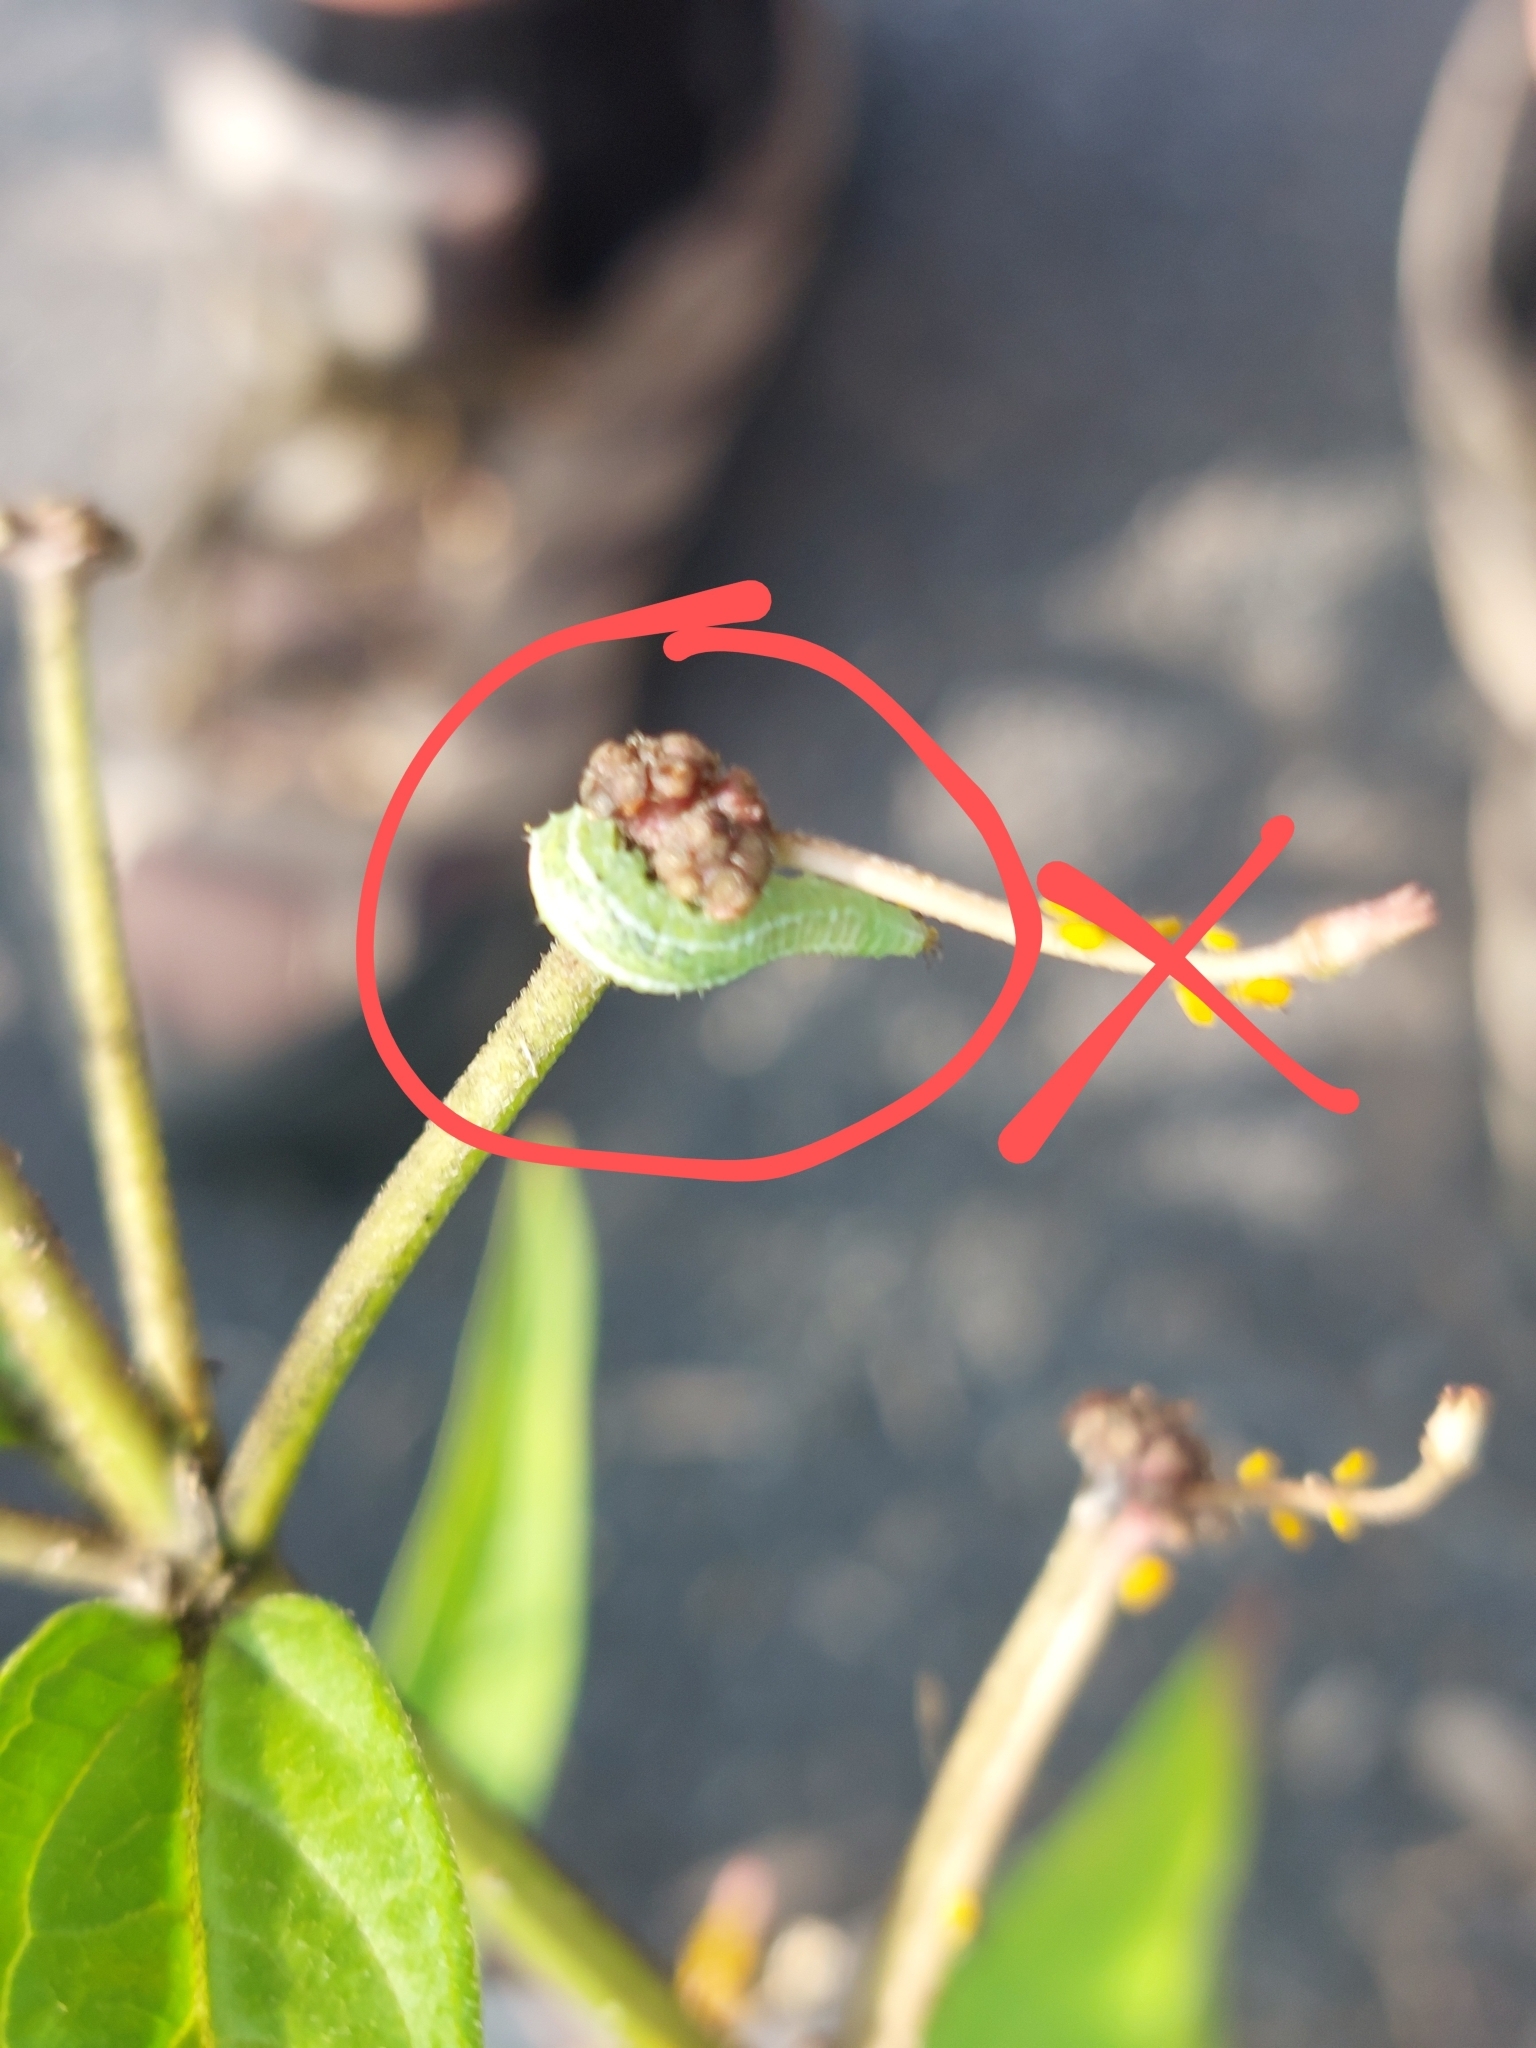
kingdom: Animalia
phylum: Arthropoda
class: Insecta
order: Diptera
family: Syrphidae
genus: Scaeva
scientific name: Scaeva affinis
